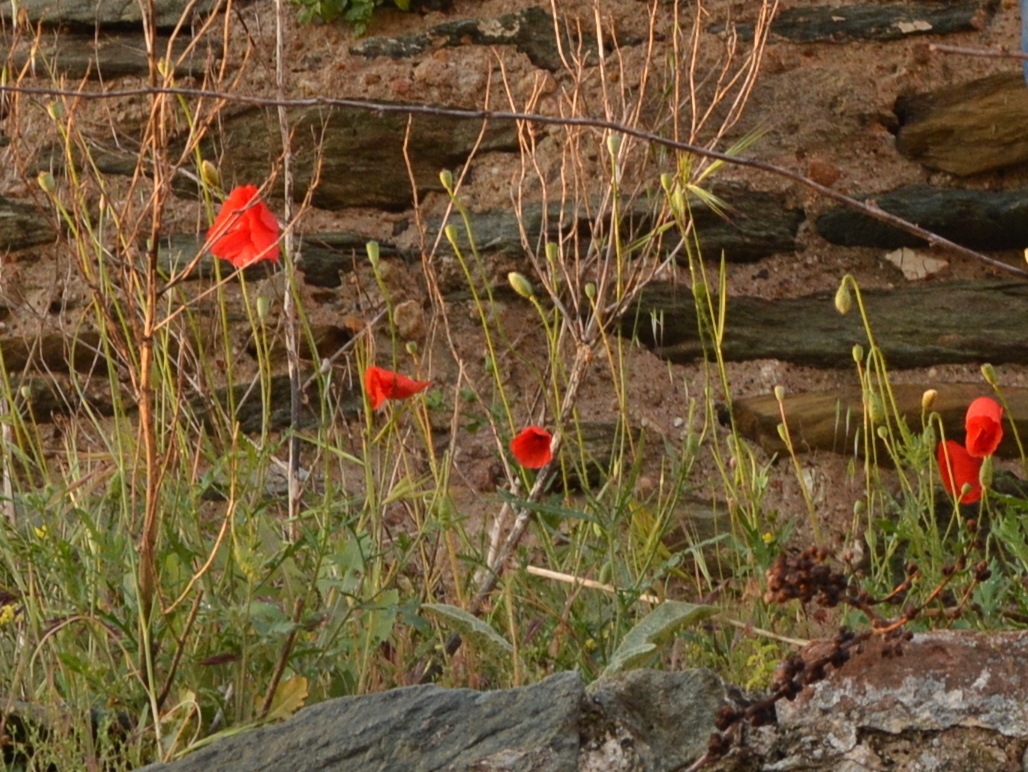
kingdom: Plantae
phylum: Tracheophyta
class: Magnoliopsida
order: Ranunculales
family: Papaveraceae
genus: Papaver
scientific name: Papaver rhoeas
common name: Corn poppy
